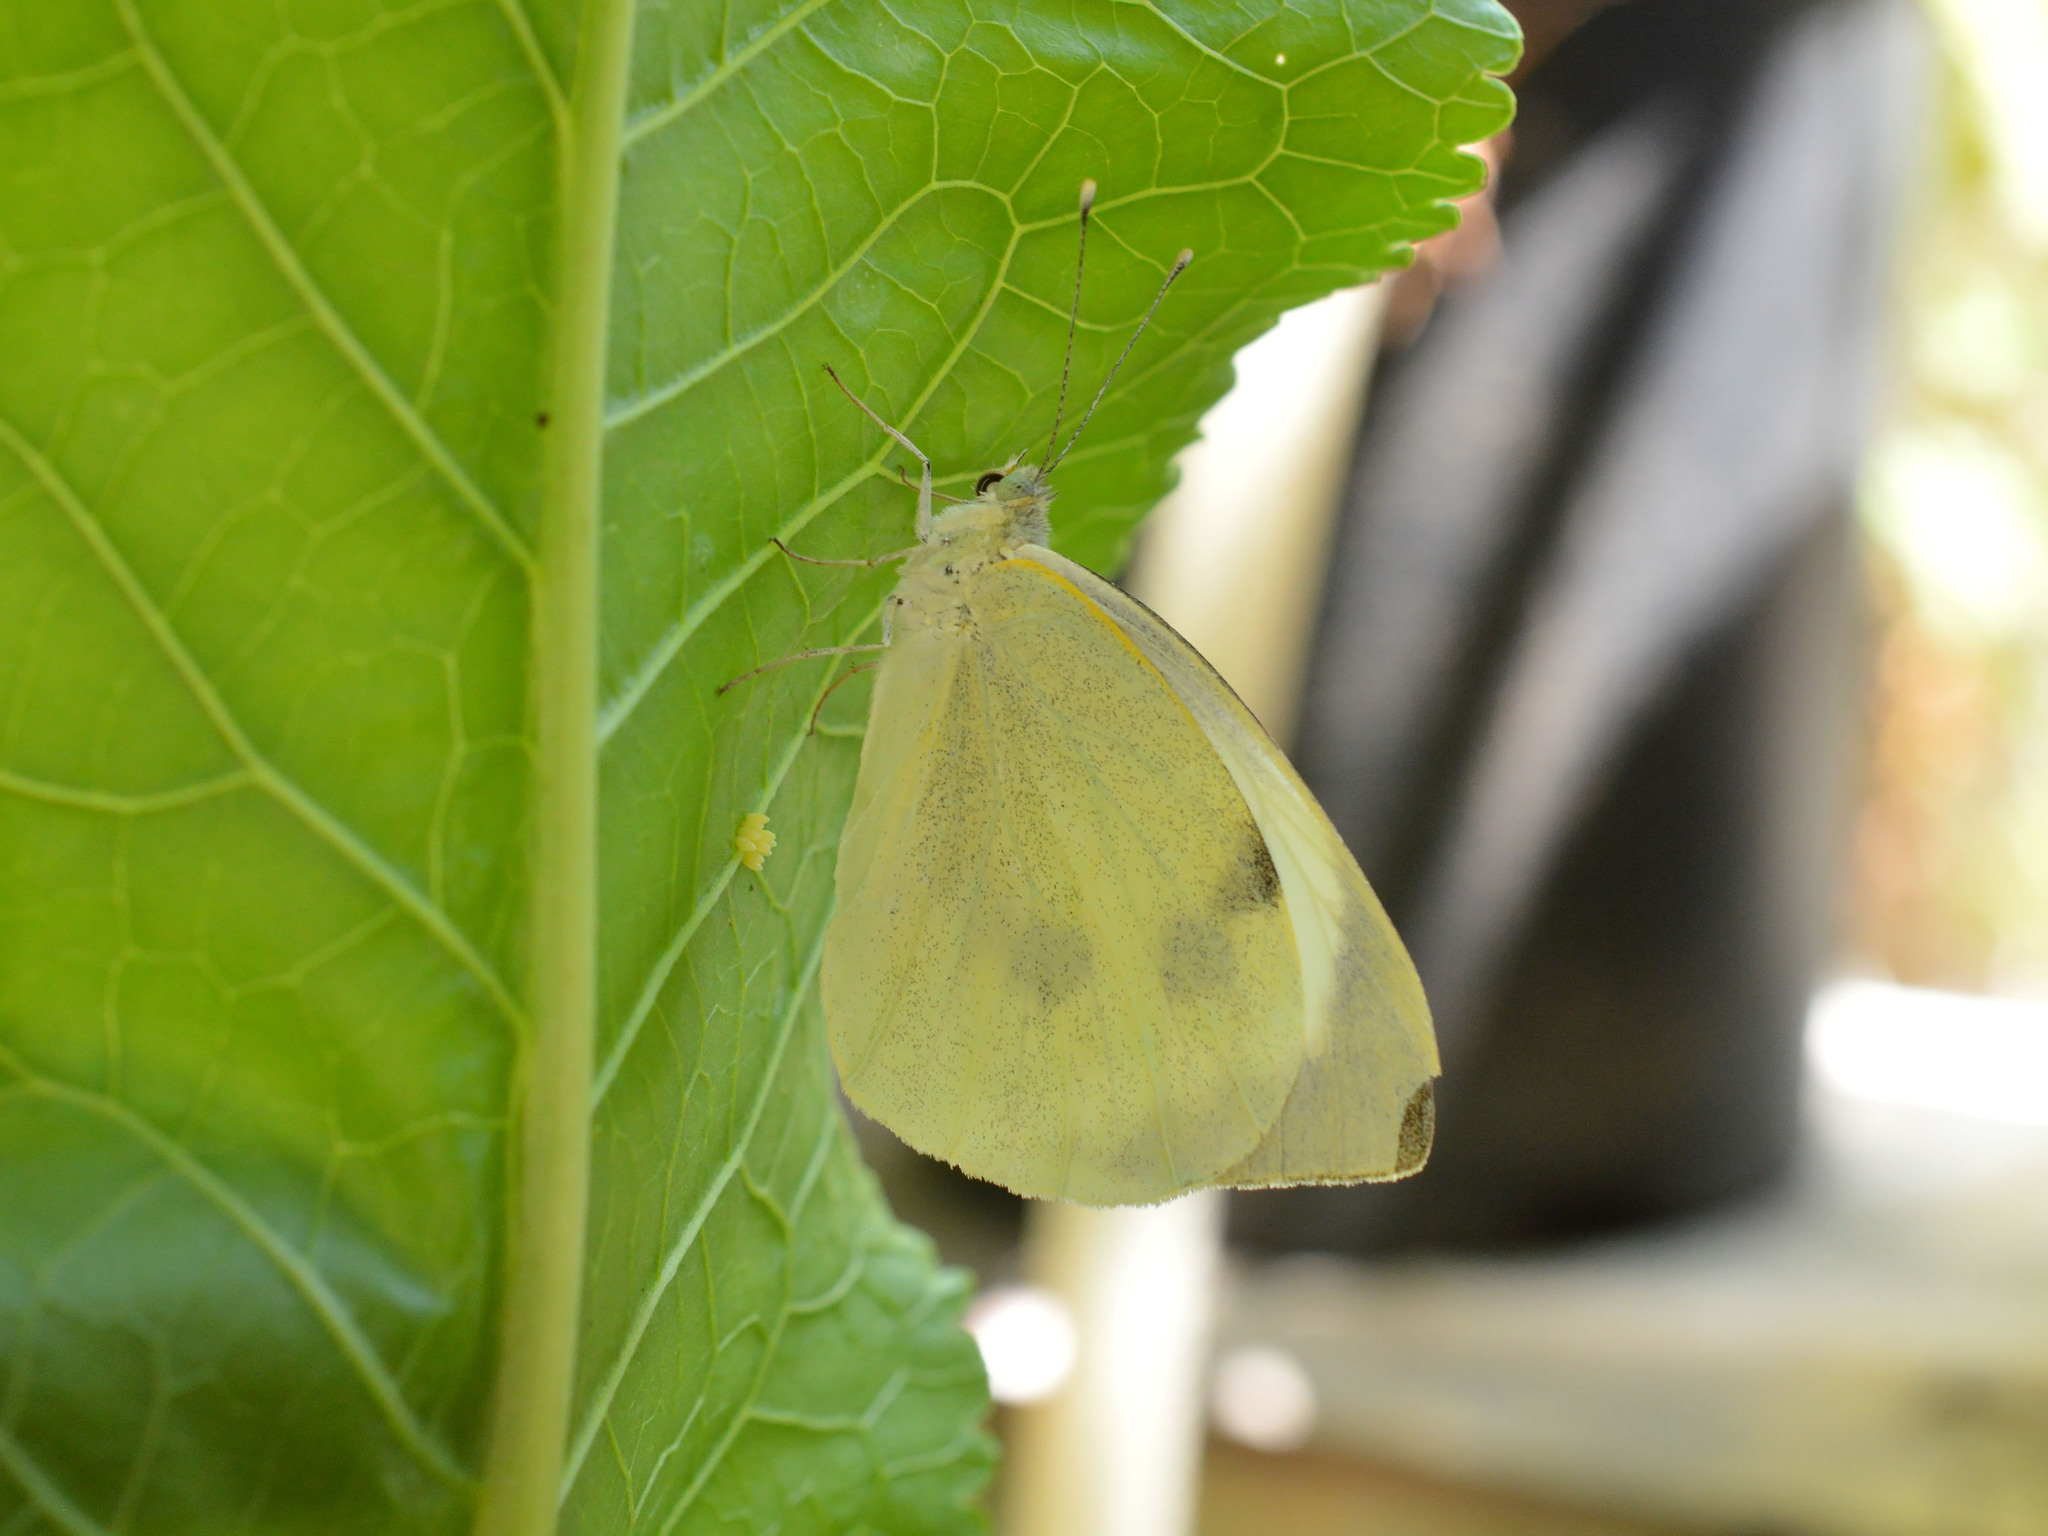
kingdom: Animalia
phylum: Arthropoda
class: Insecta
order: Lepidoptera
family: Pieridae
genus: Pieris
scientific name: Pieris brassicae
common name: Large white
